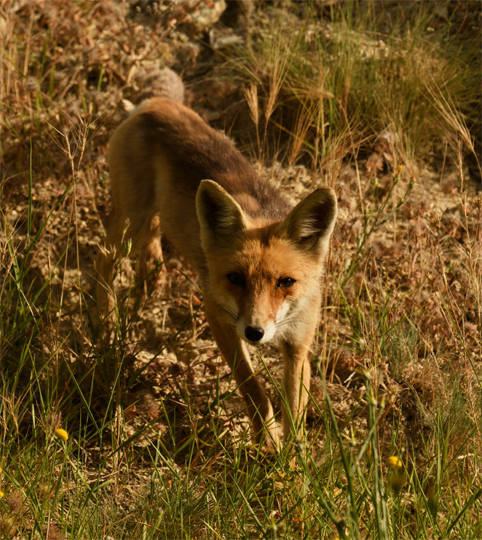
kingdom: Animalia
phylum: Chordata
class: Mammalia
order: Carnivora
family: Canidae
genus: Vulpes
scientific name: Vulpes vulpes
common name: Red fox
